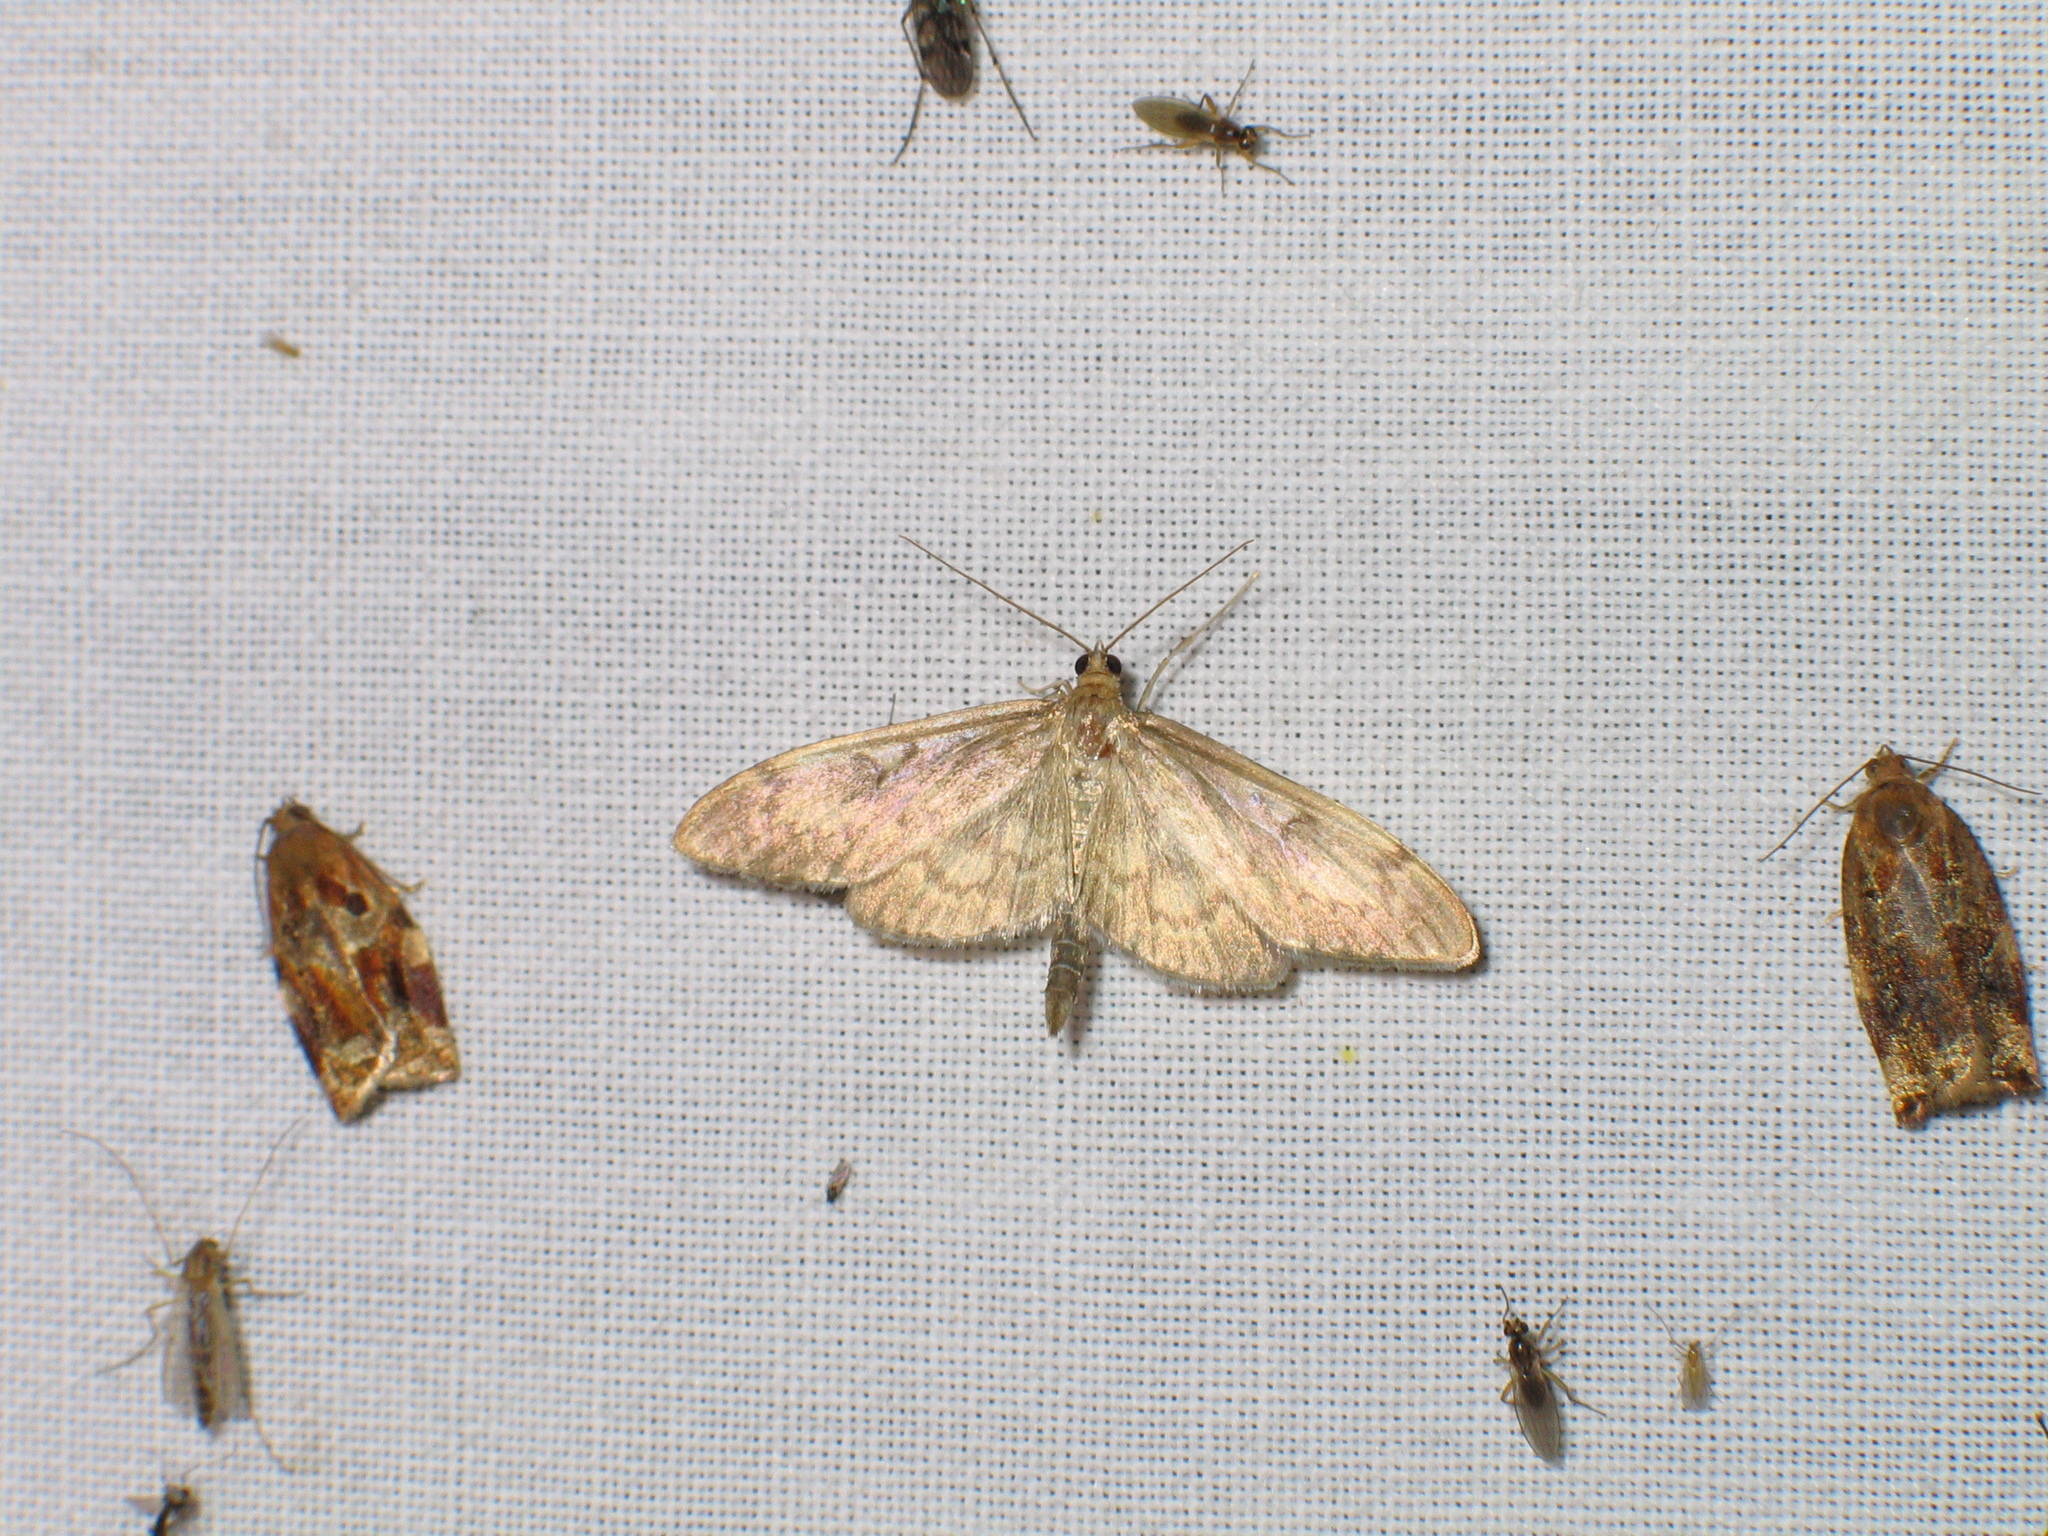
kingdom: Animalia
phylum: Arthropoda
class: Insecta
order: Lepidoptera
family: Crambidae
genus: Anania
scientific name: Anania lancealis
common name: Long-winged pearl
